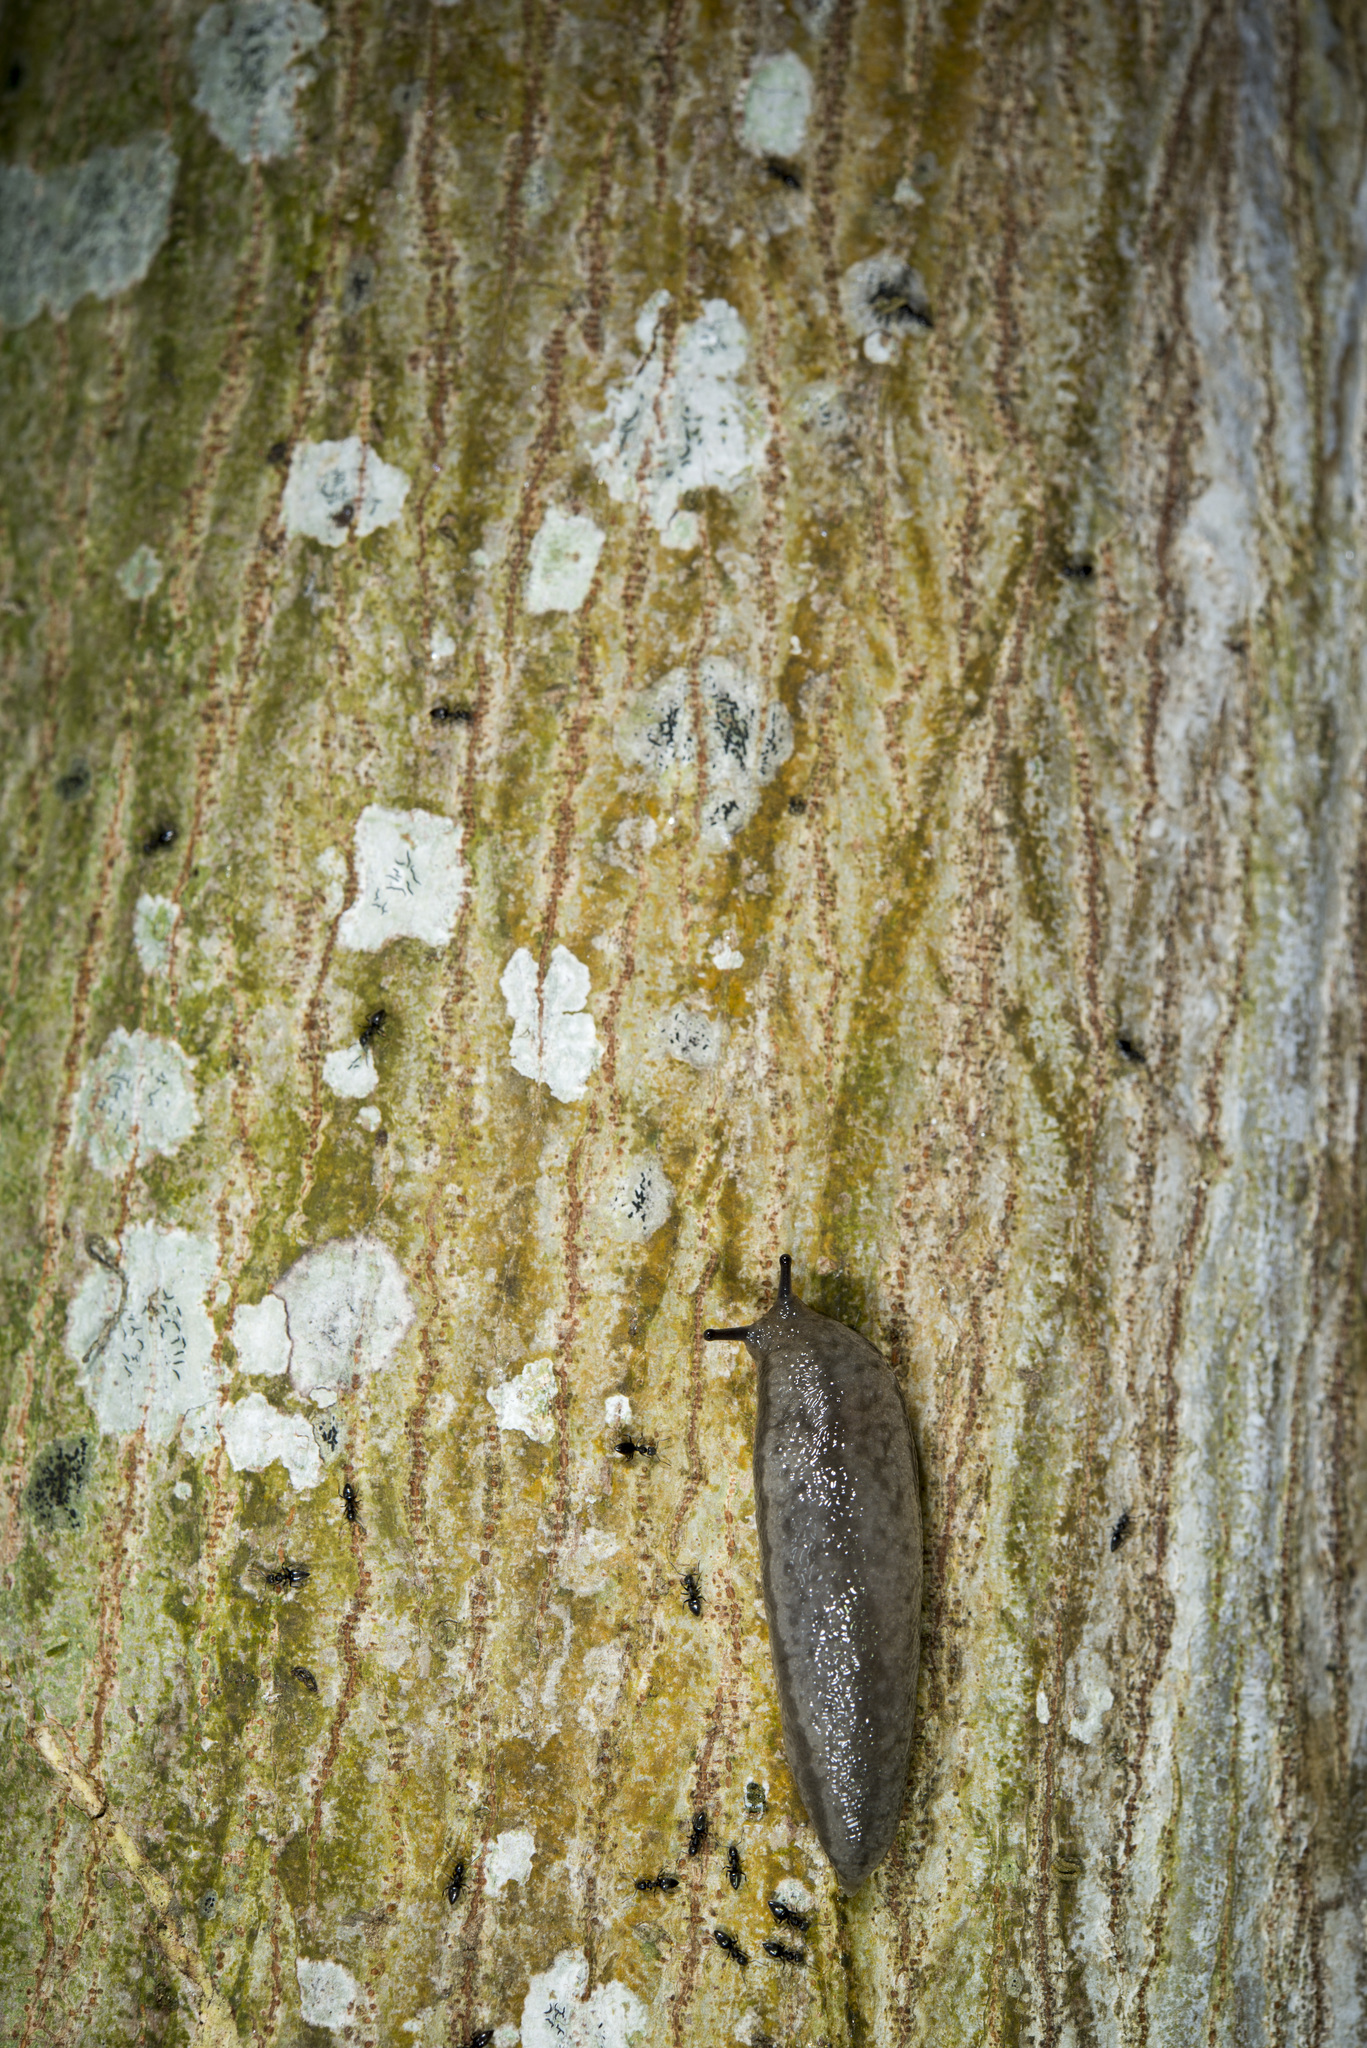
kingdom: Animalia
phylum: Mollusca
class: Gastropoda
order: Stylommatophora
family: Philomycidae
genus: Meghimatium
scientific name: Meghimatium bilineatum
